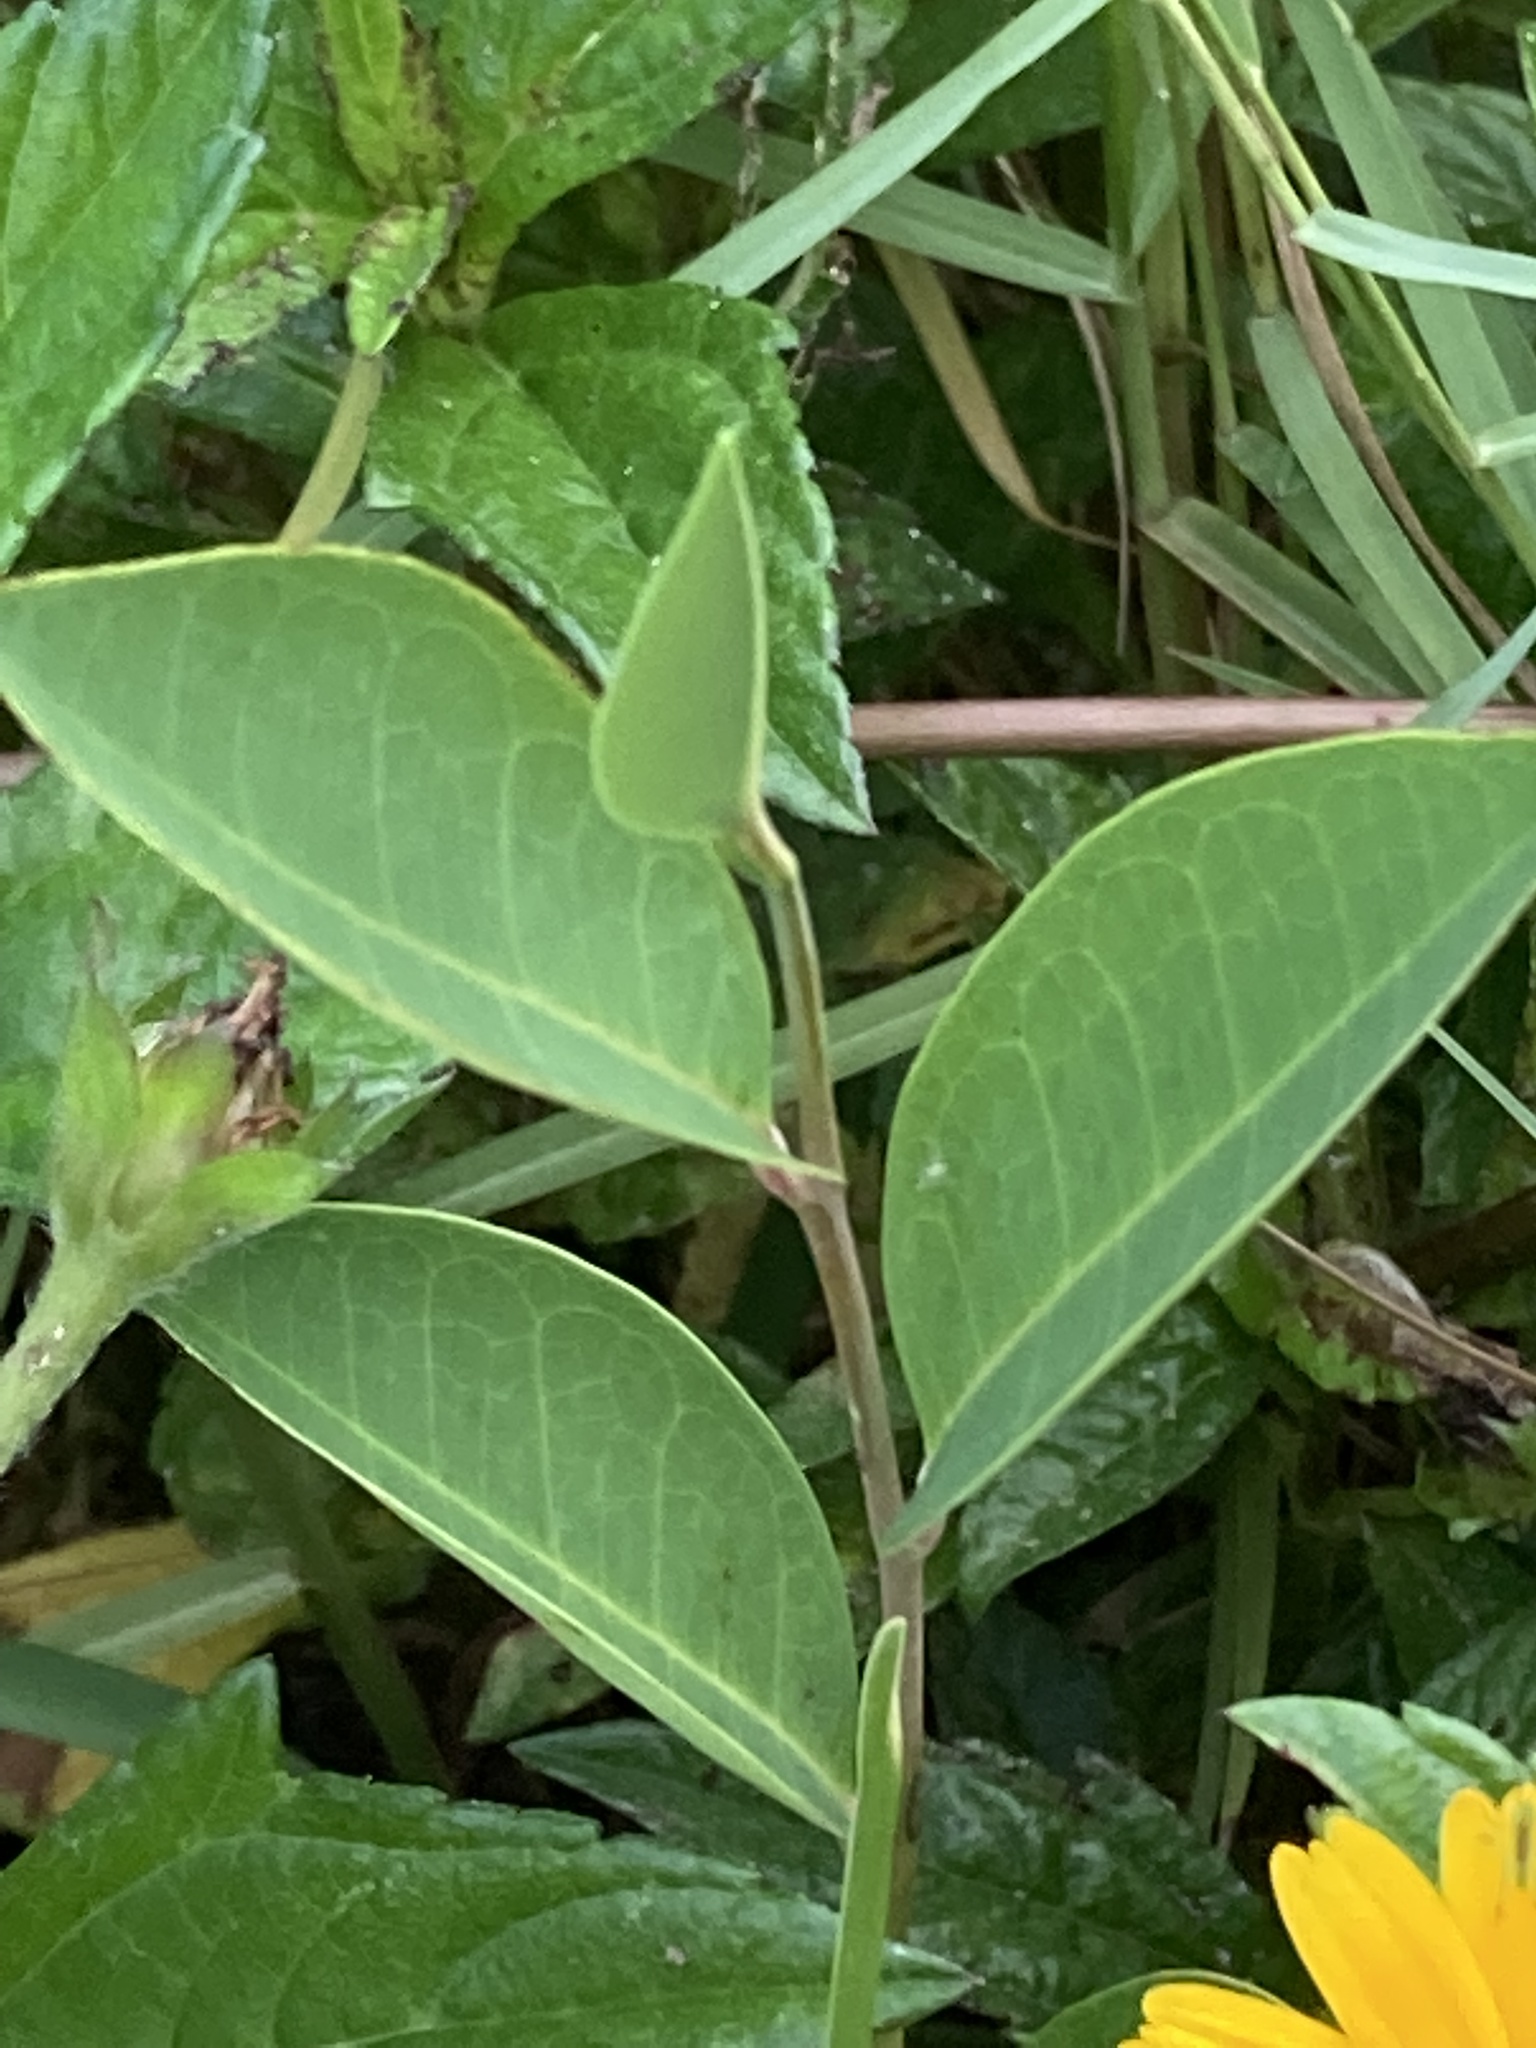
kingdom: Plantae
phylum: Tracheophyta
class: Magnoliopsida
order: Magnoliales
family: Annonaceae
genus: Annona
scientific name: Annona glabra
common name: Monkey apple
